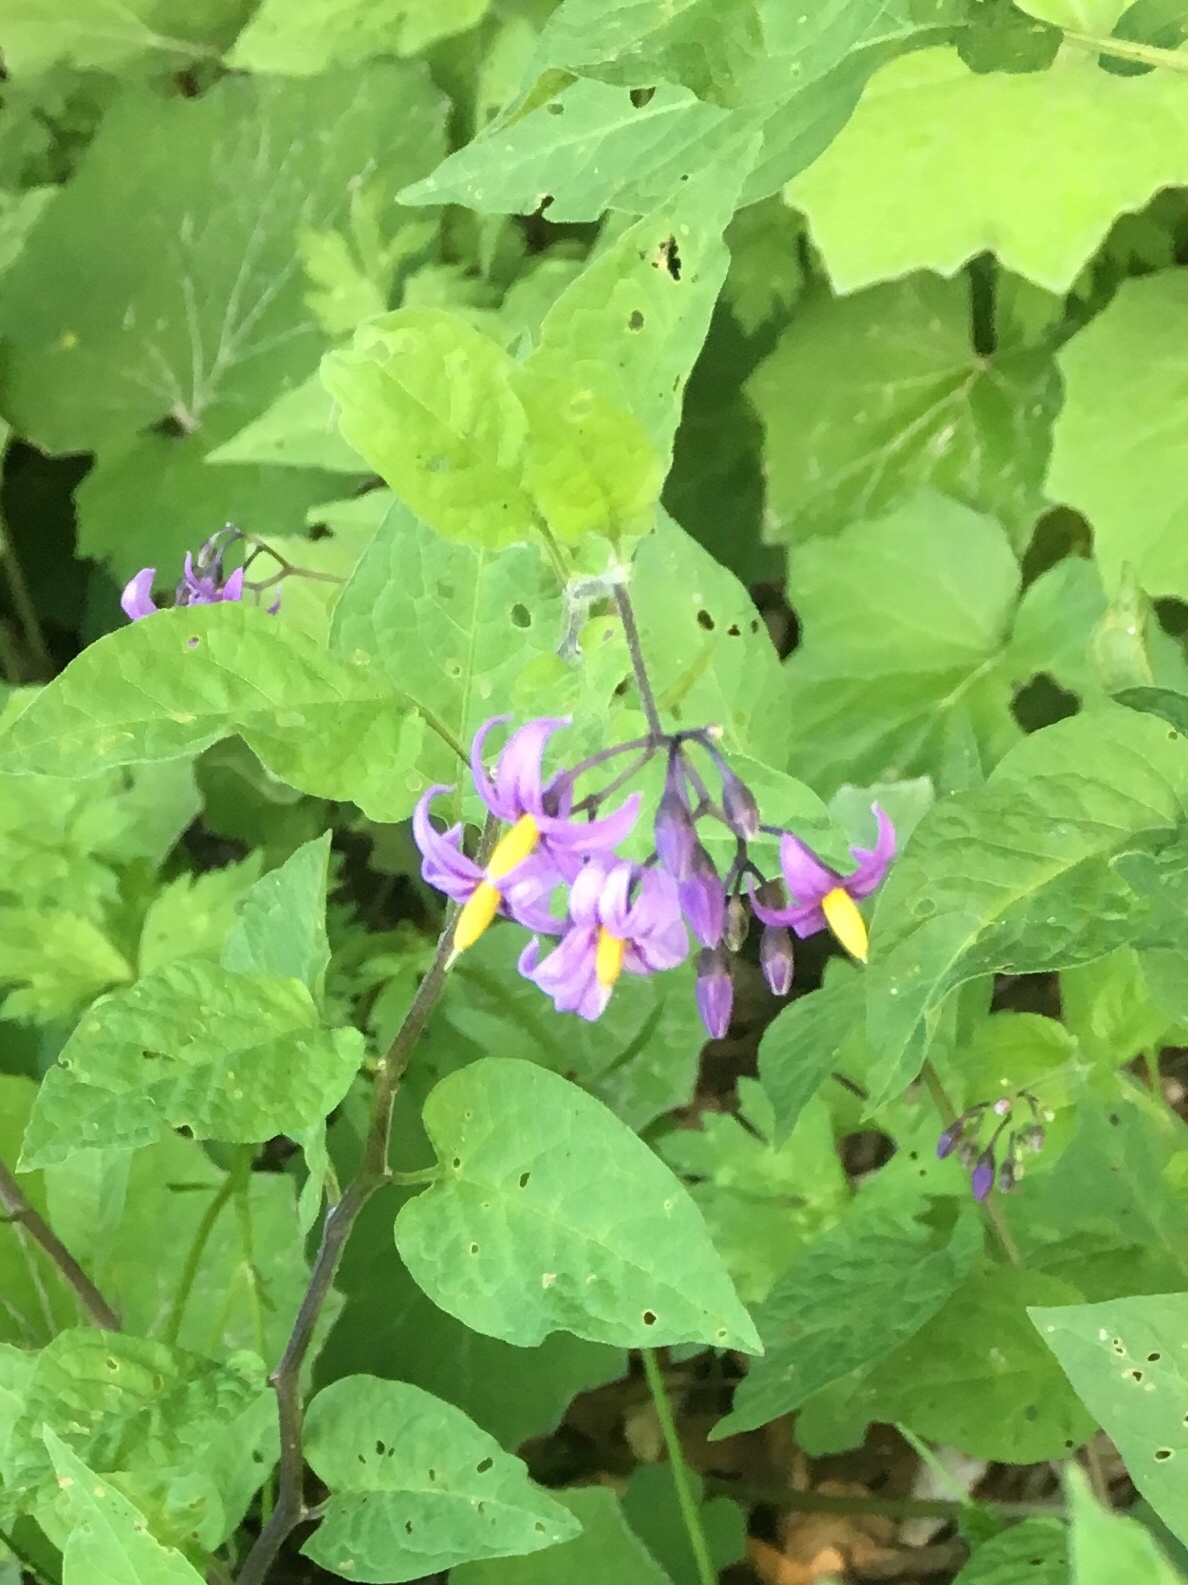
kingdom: Plantae
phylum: Tracheophyta
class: Magnoliopsida
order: Solanales
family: Solanaceae
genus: Solanum
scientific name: Solanum dulcamara
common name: Climbing nightshade
